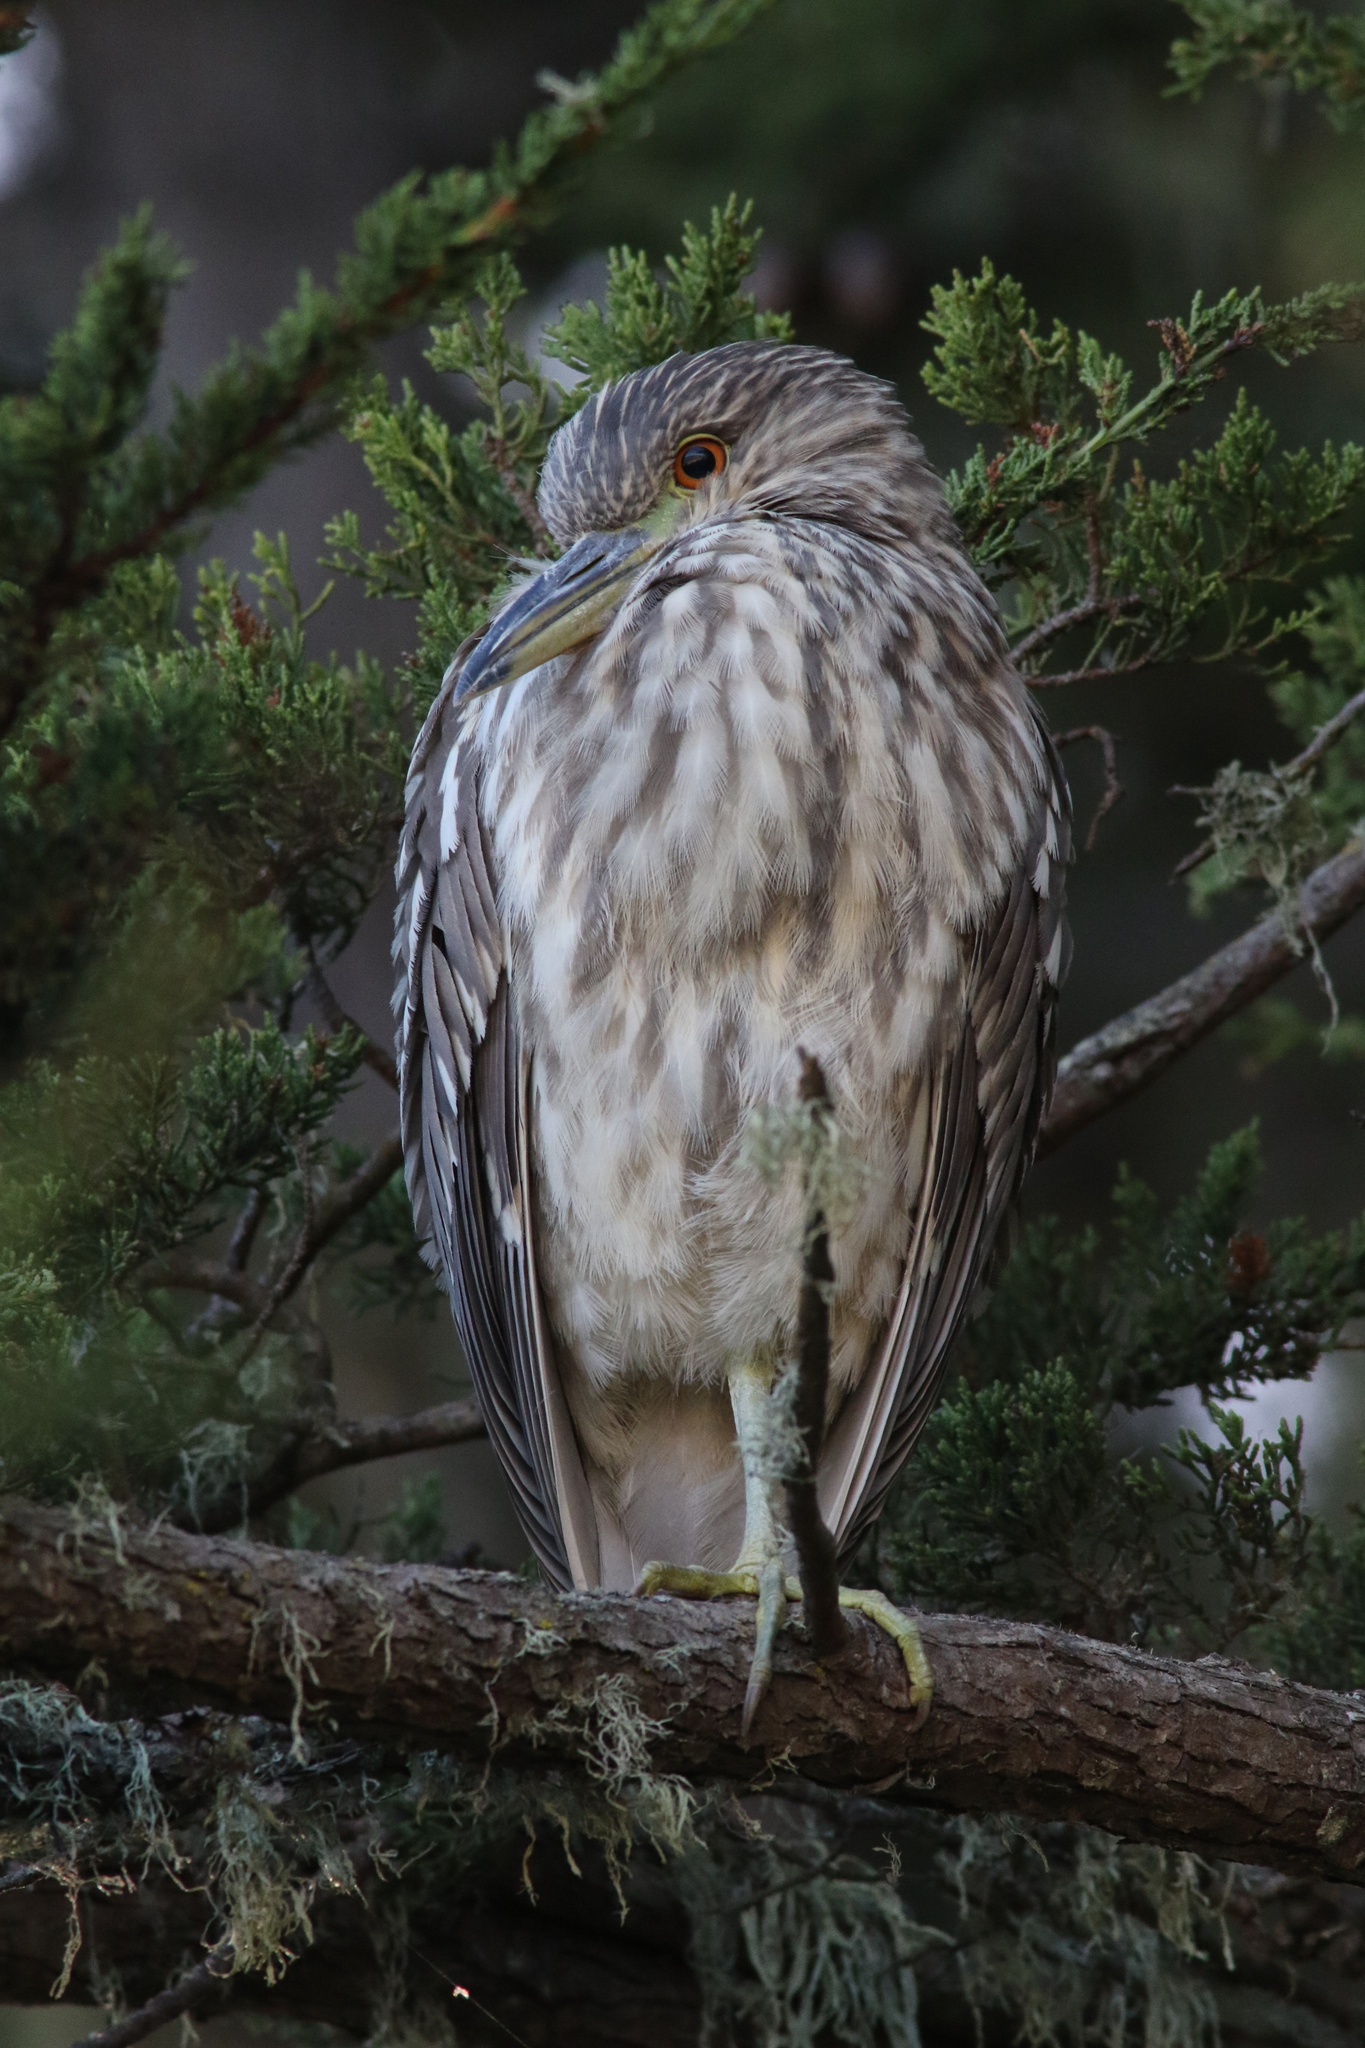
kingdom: Animalia
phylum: Chordata
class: Aves
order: Pelecaniformes
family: Ardeidae
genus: Nycticorax
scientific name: Nycticorax nycticorax
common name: Black-crowned night heron
